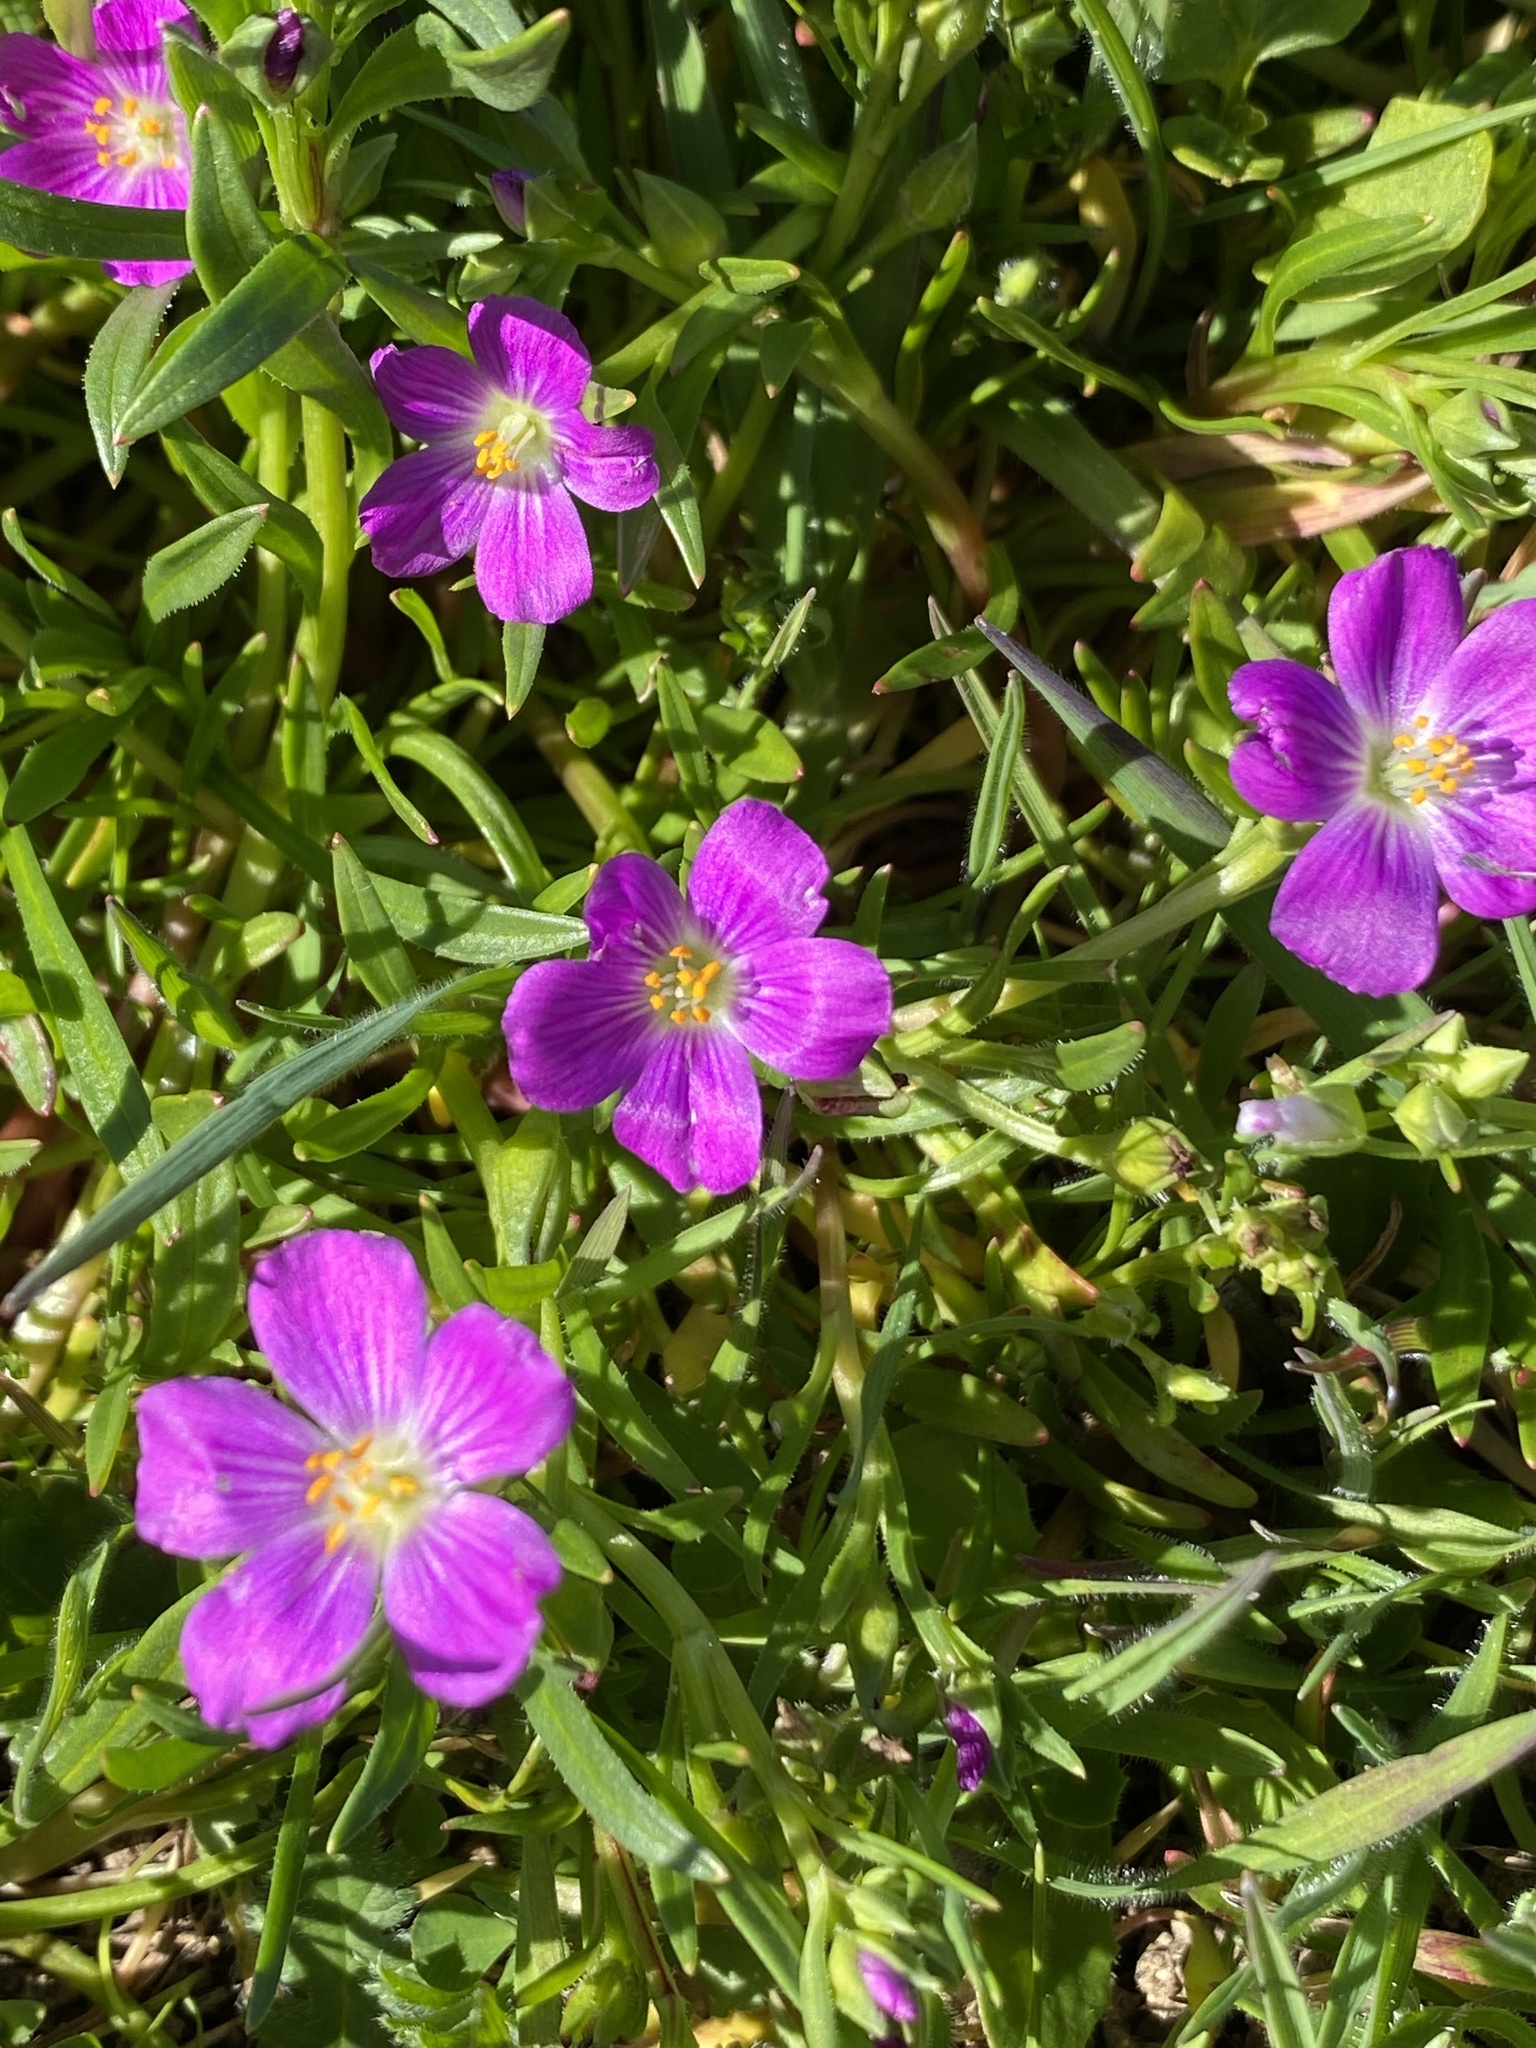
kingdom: Plantae
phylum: Tracheophyta
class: Magnoliopsida
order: Caryophyllales
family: Montiaceae
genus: Calandrinia
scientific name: Calandrinia menziesii
